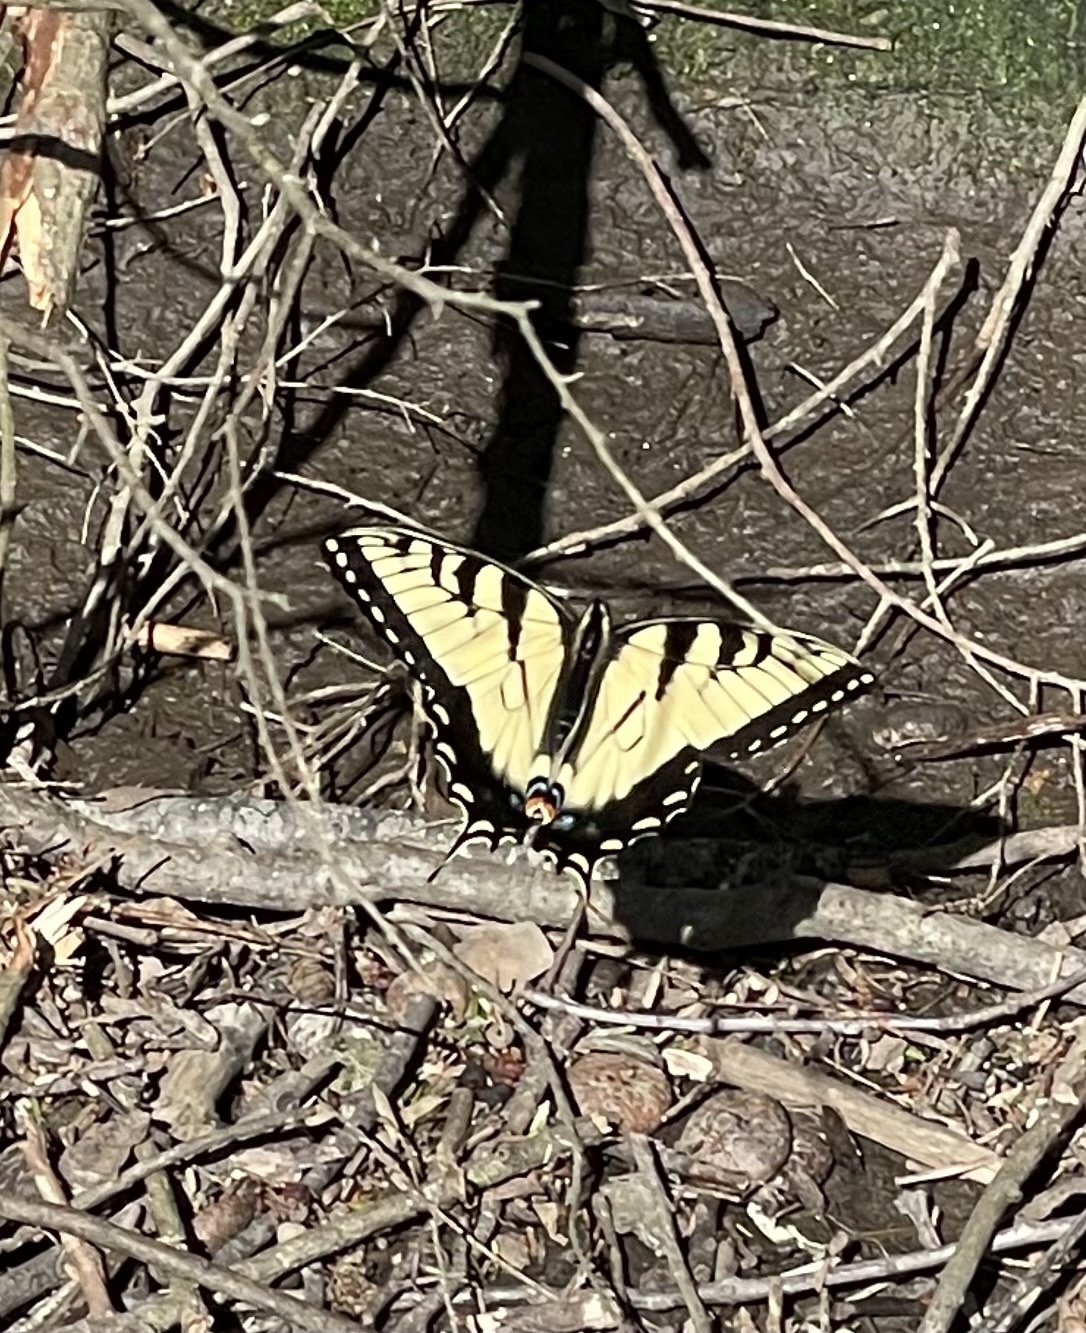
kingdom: Animalia
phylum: Arthropoda
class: Insecta
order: Lepidoptera
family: Papilionidae
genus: Papilio
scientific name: Papilio glaucus
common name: Tiger swallowtail
